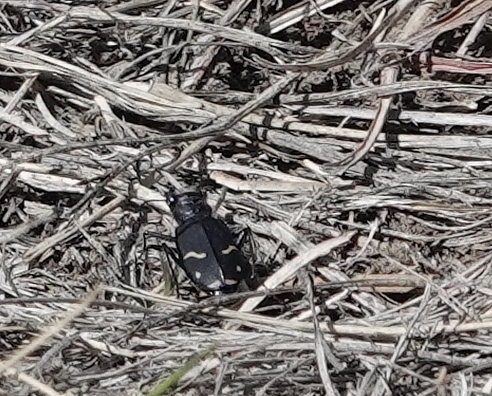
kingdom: Animalia
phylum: Arthropoda
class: Insecta
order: Coleoptera
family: Carabidae
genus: Cicindela
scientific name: Cicindela purpurea
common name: Cow path tiger beetle
